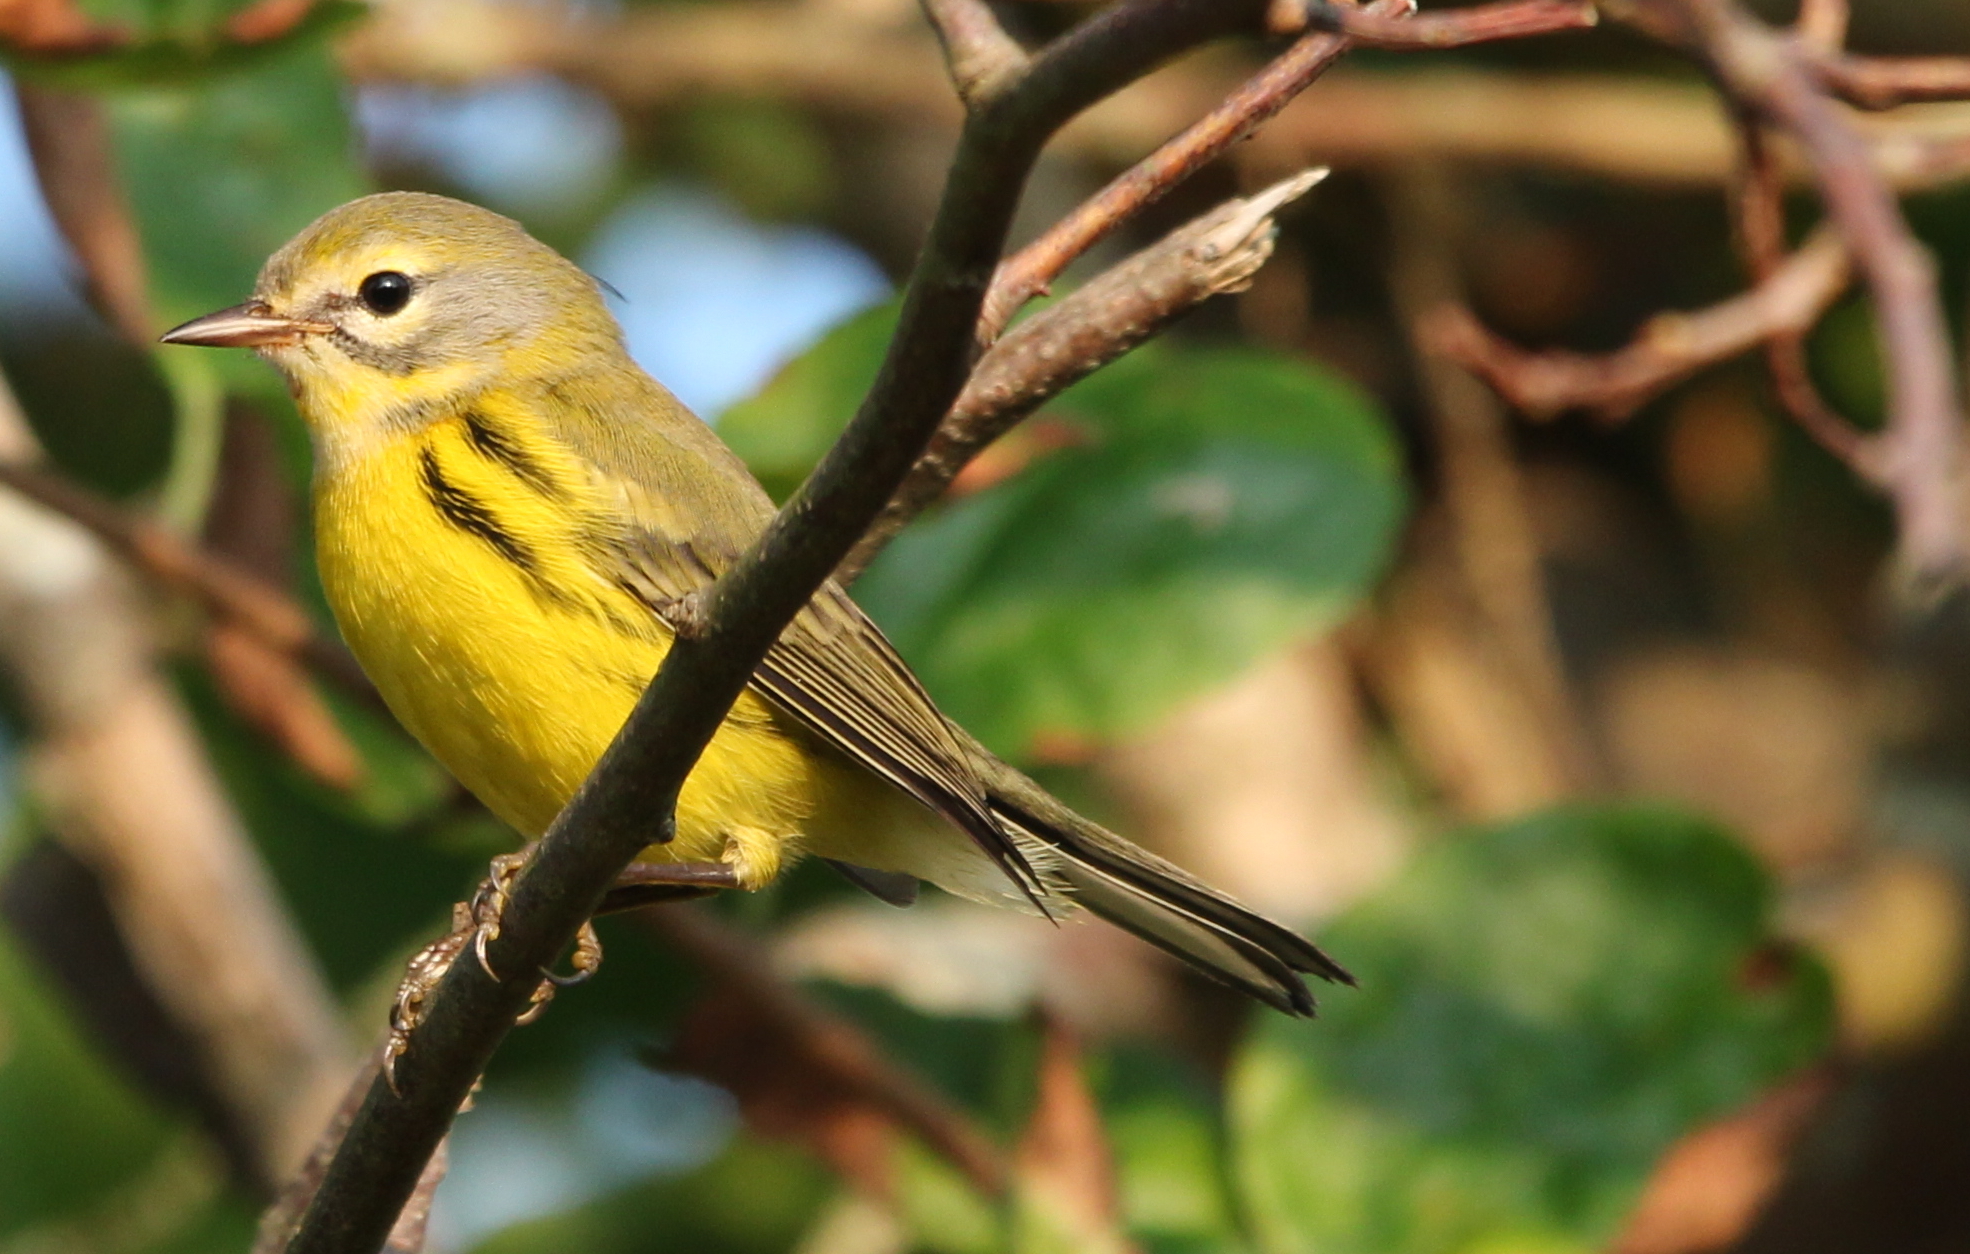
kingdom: Animalia
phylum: Chordata
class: Aves
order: Passeriformes
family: Parulidae
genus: Setophaga
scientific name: Setophaga discolor
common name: Prairie warbler
